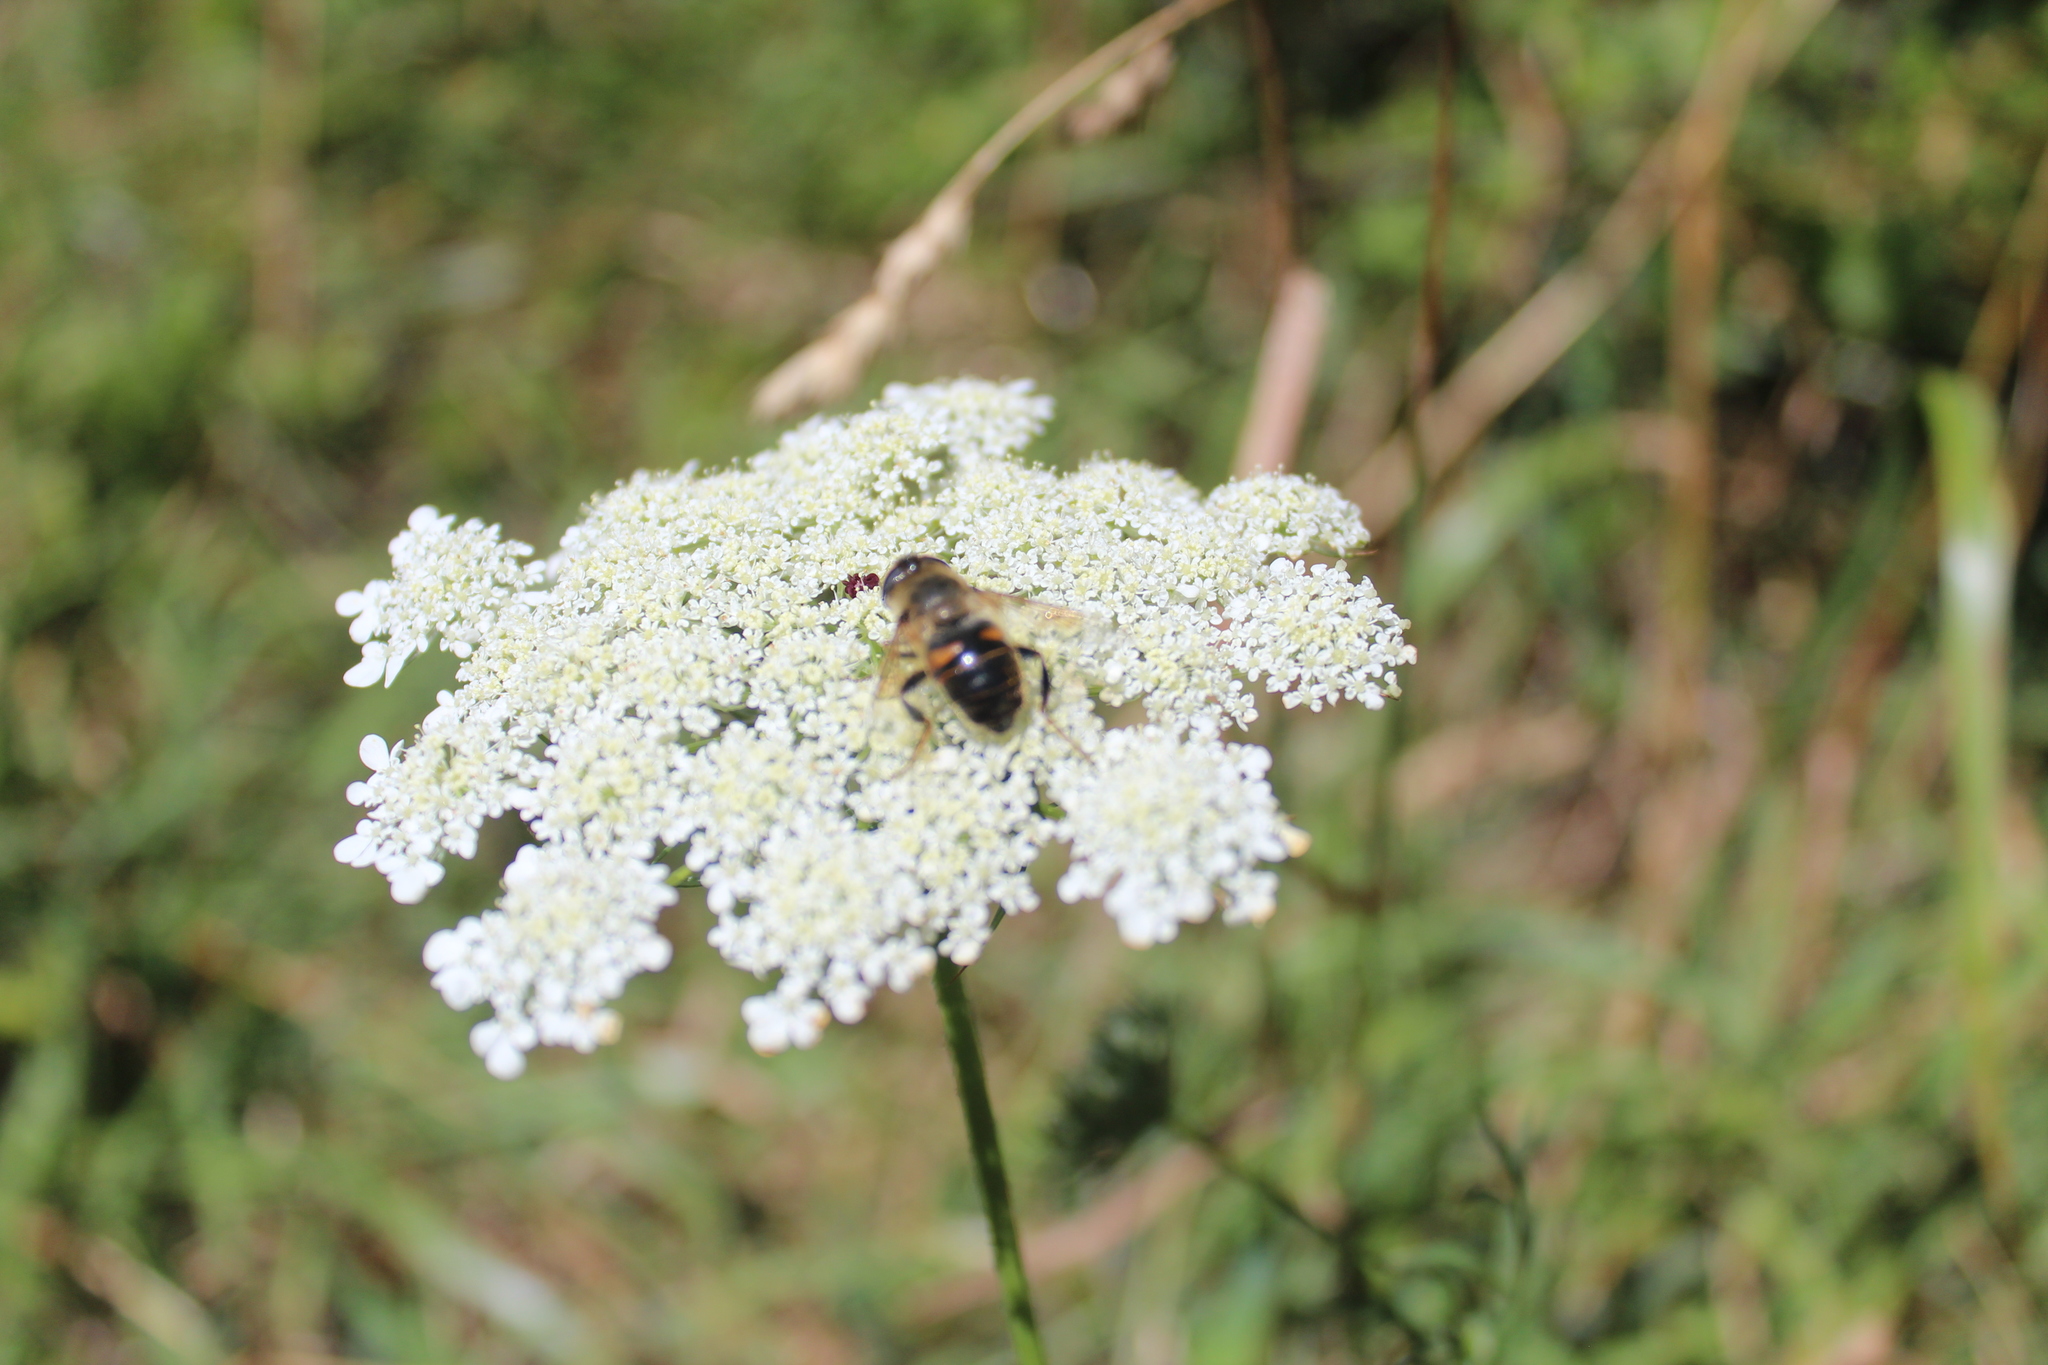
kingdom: Animalia
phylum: Arthropoda
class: Insecta
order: Diptera
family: Syrphidae
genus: Eristalis
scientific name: Eristalis tenax
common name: Drone fly
